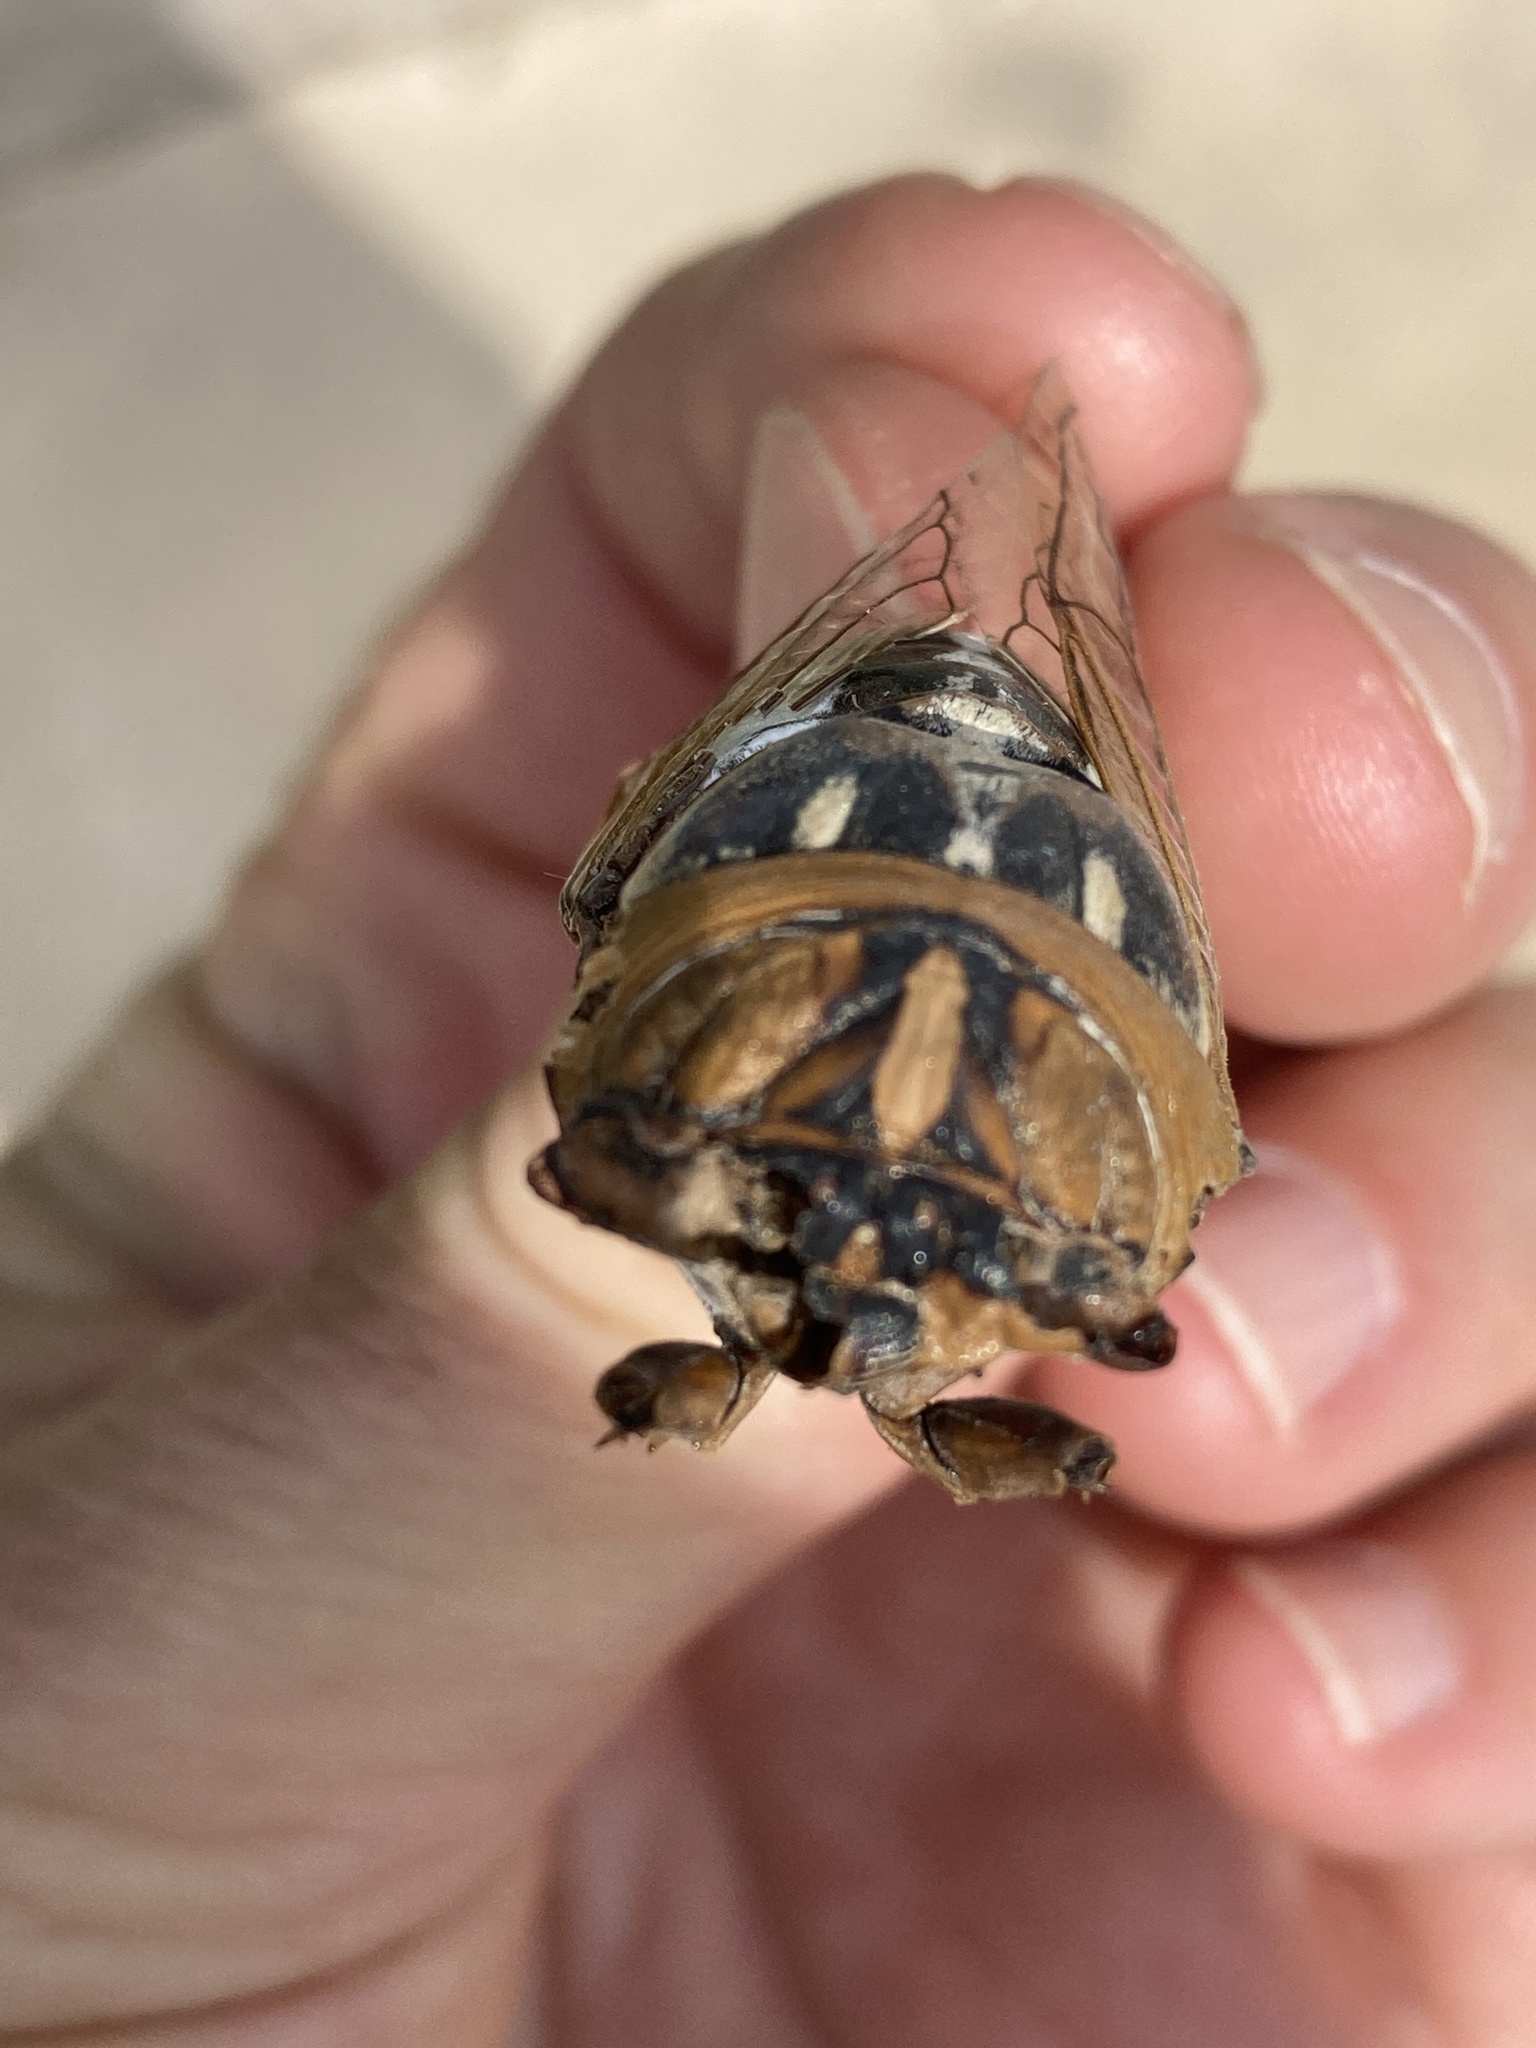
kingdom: Animalia
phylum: Arthropoda
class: Insecta
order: Hemiptera
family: Cicadidae
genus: Megatibicen
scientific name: Megatibicen dealbatus
